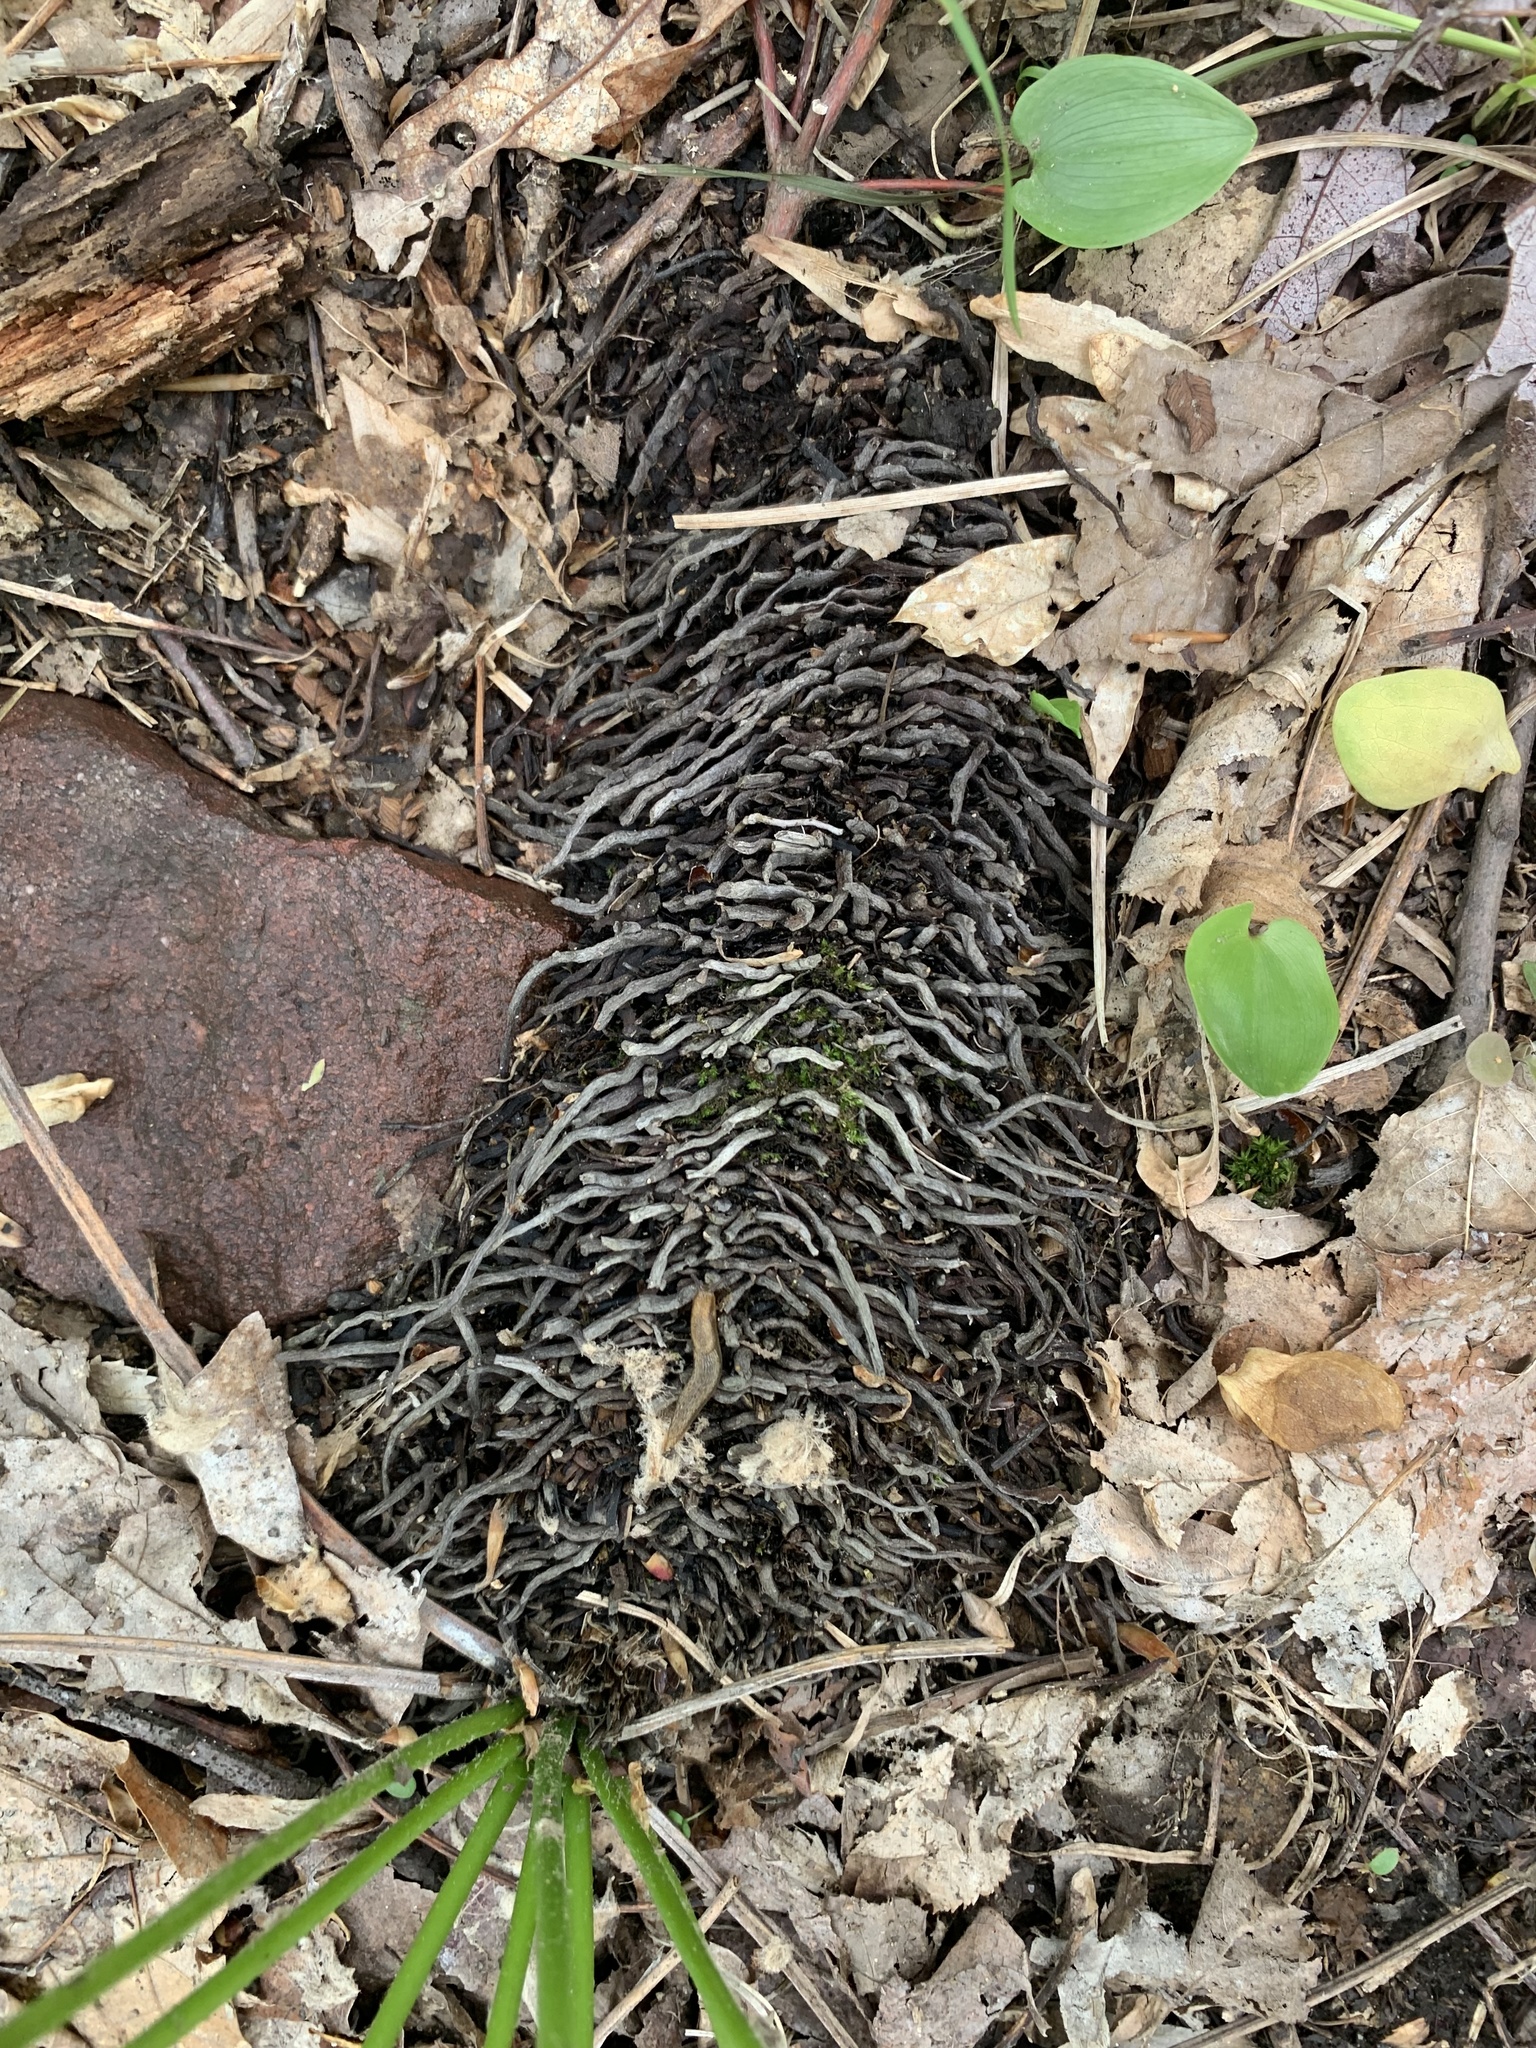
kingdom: Plantae
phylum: Tracheophyta
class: Polypodiopsida
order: Osmundales
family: Osmundaceae
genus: Claytosmunda
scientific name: Claytosmunda claytoniana
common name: Clayton's fern
